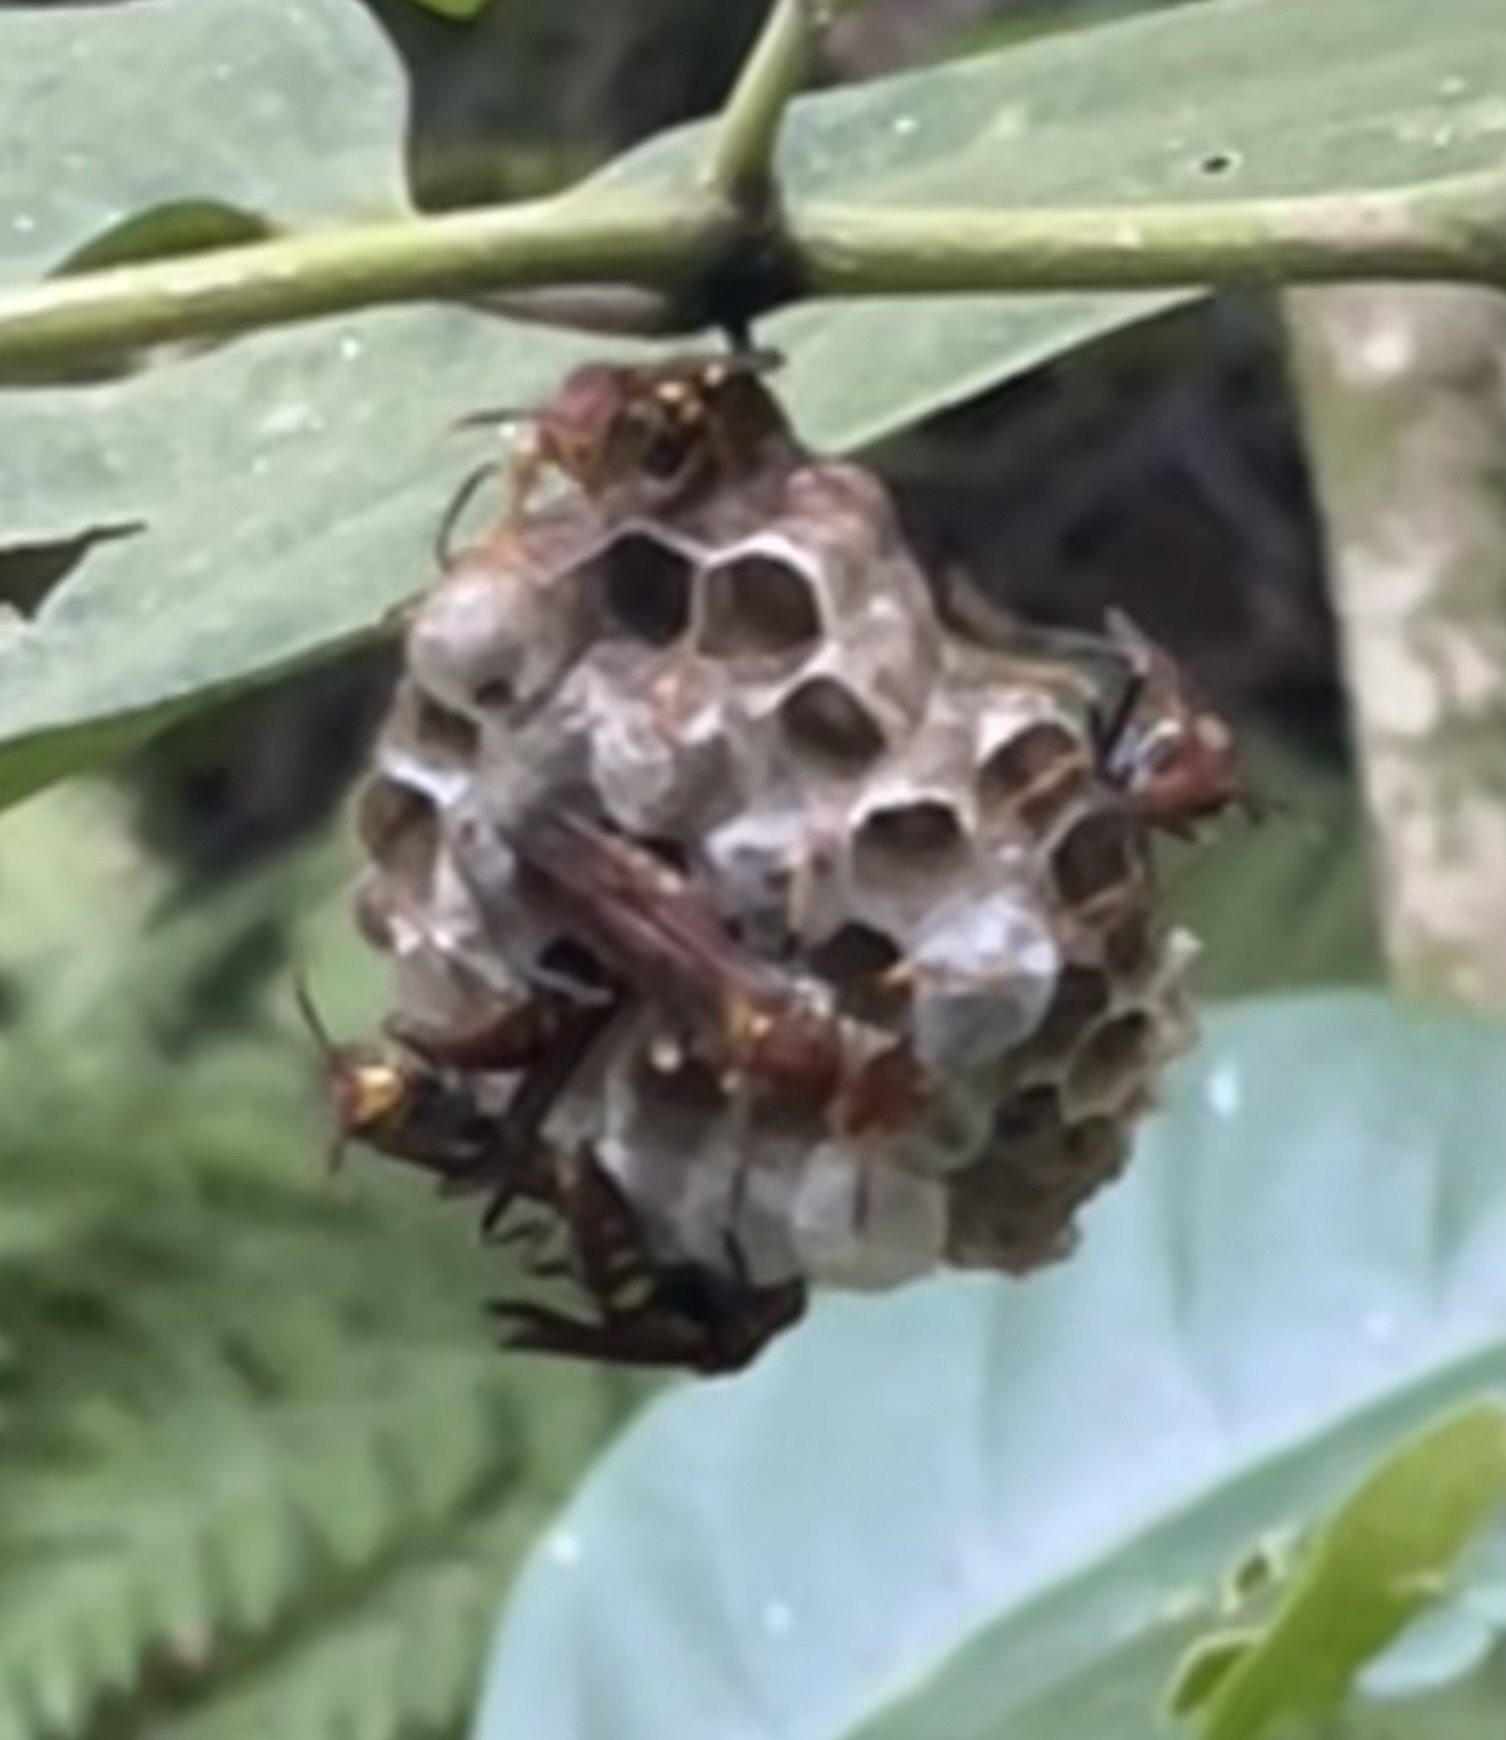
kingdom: Animalia
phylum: Arthropoda
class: Insecta
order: Hymenoptera
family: Eumenidae
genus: Polistes
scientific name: Polistes versicolor
